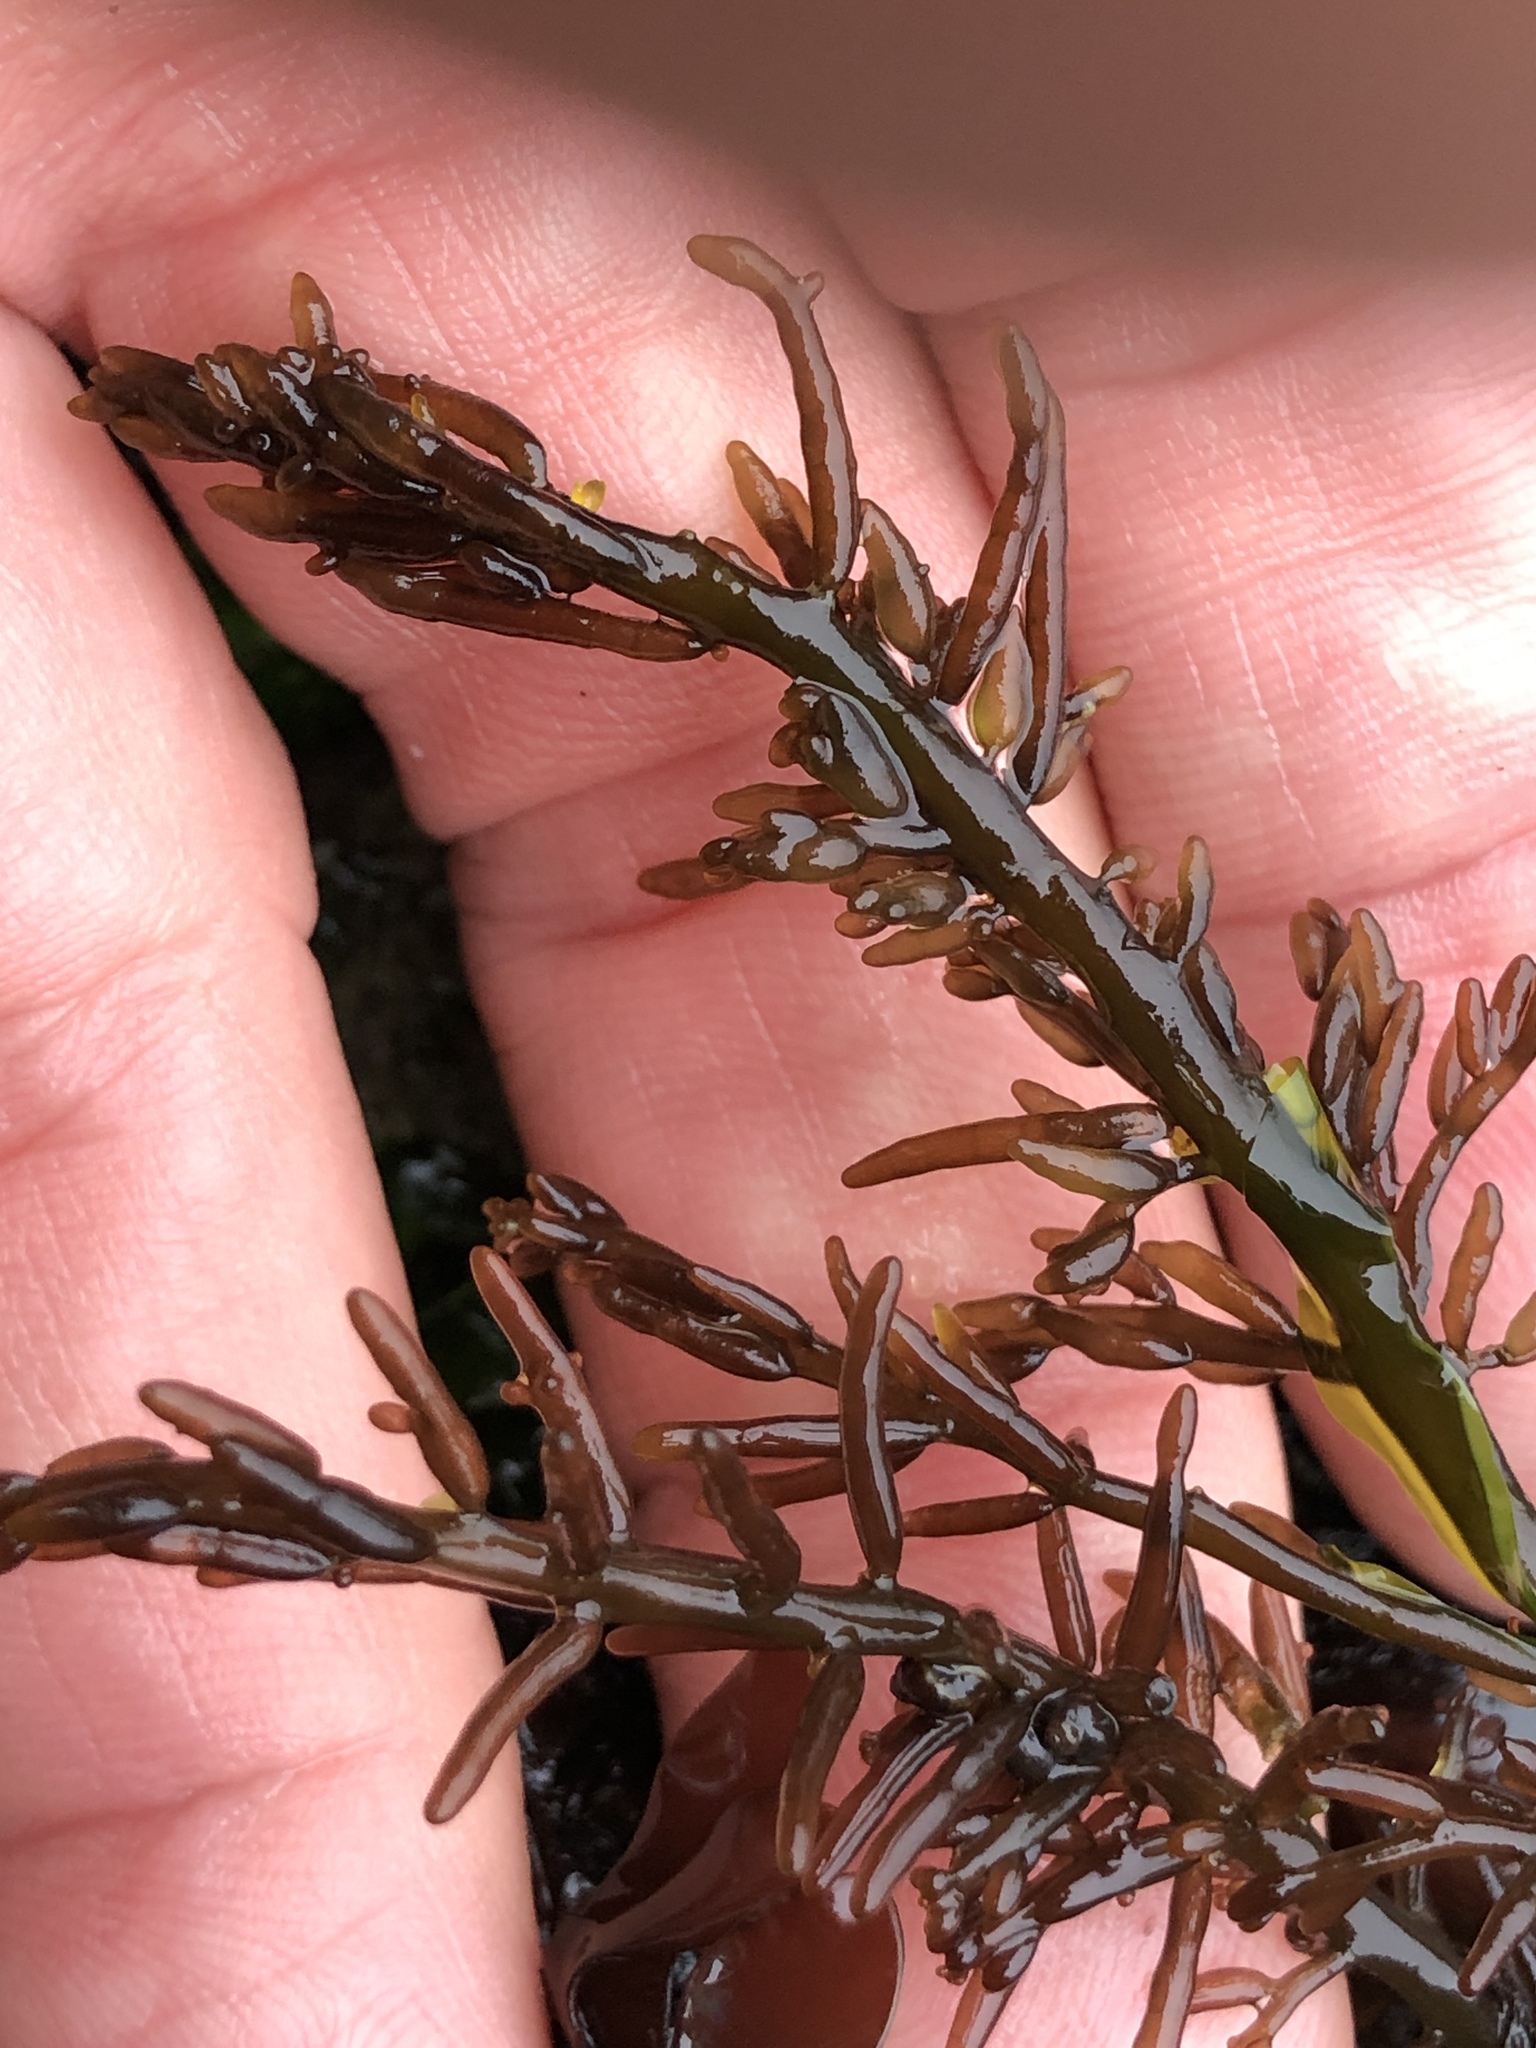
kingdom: Plantae
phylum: Rhodophyta
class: Florideophyceae
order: Rhodymeniales
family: Champiaceae
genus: Neogastroclonium
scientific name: Neogastroclonium subarticulatum
